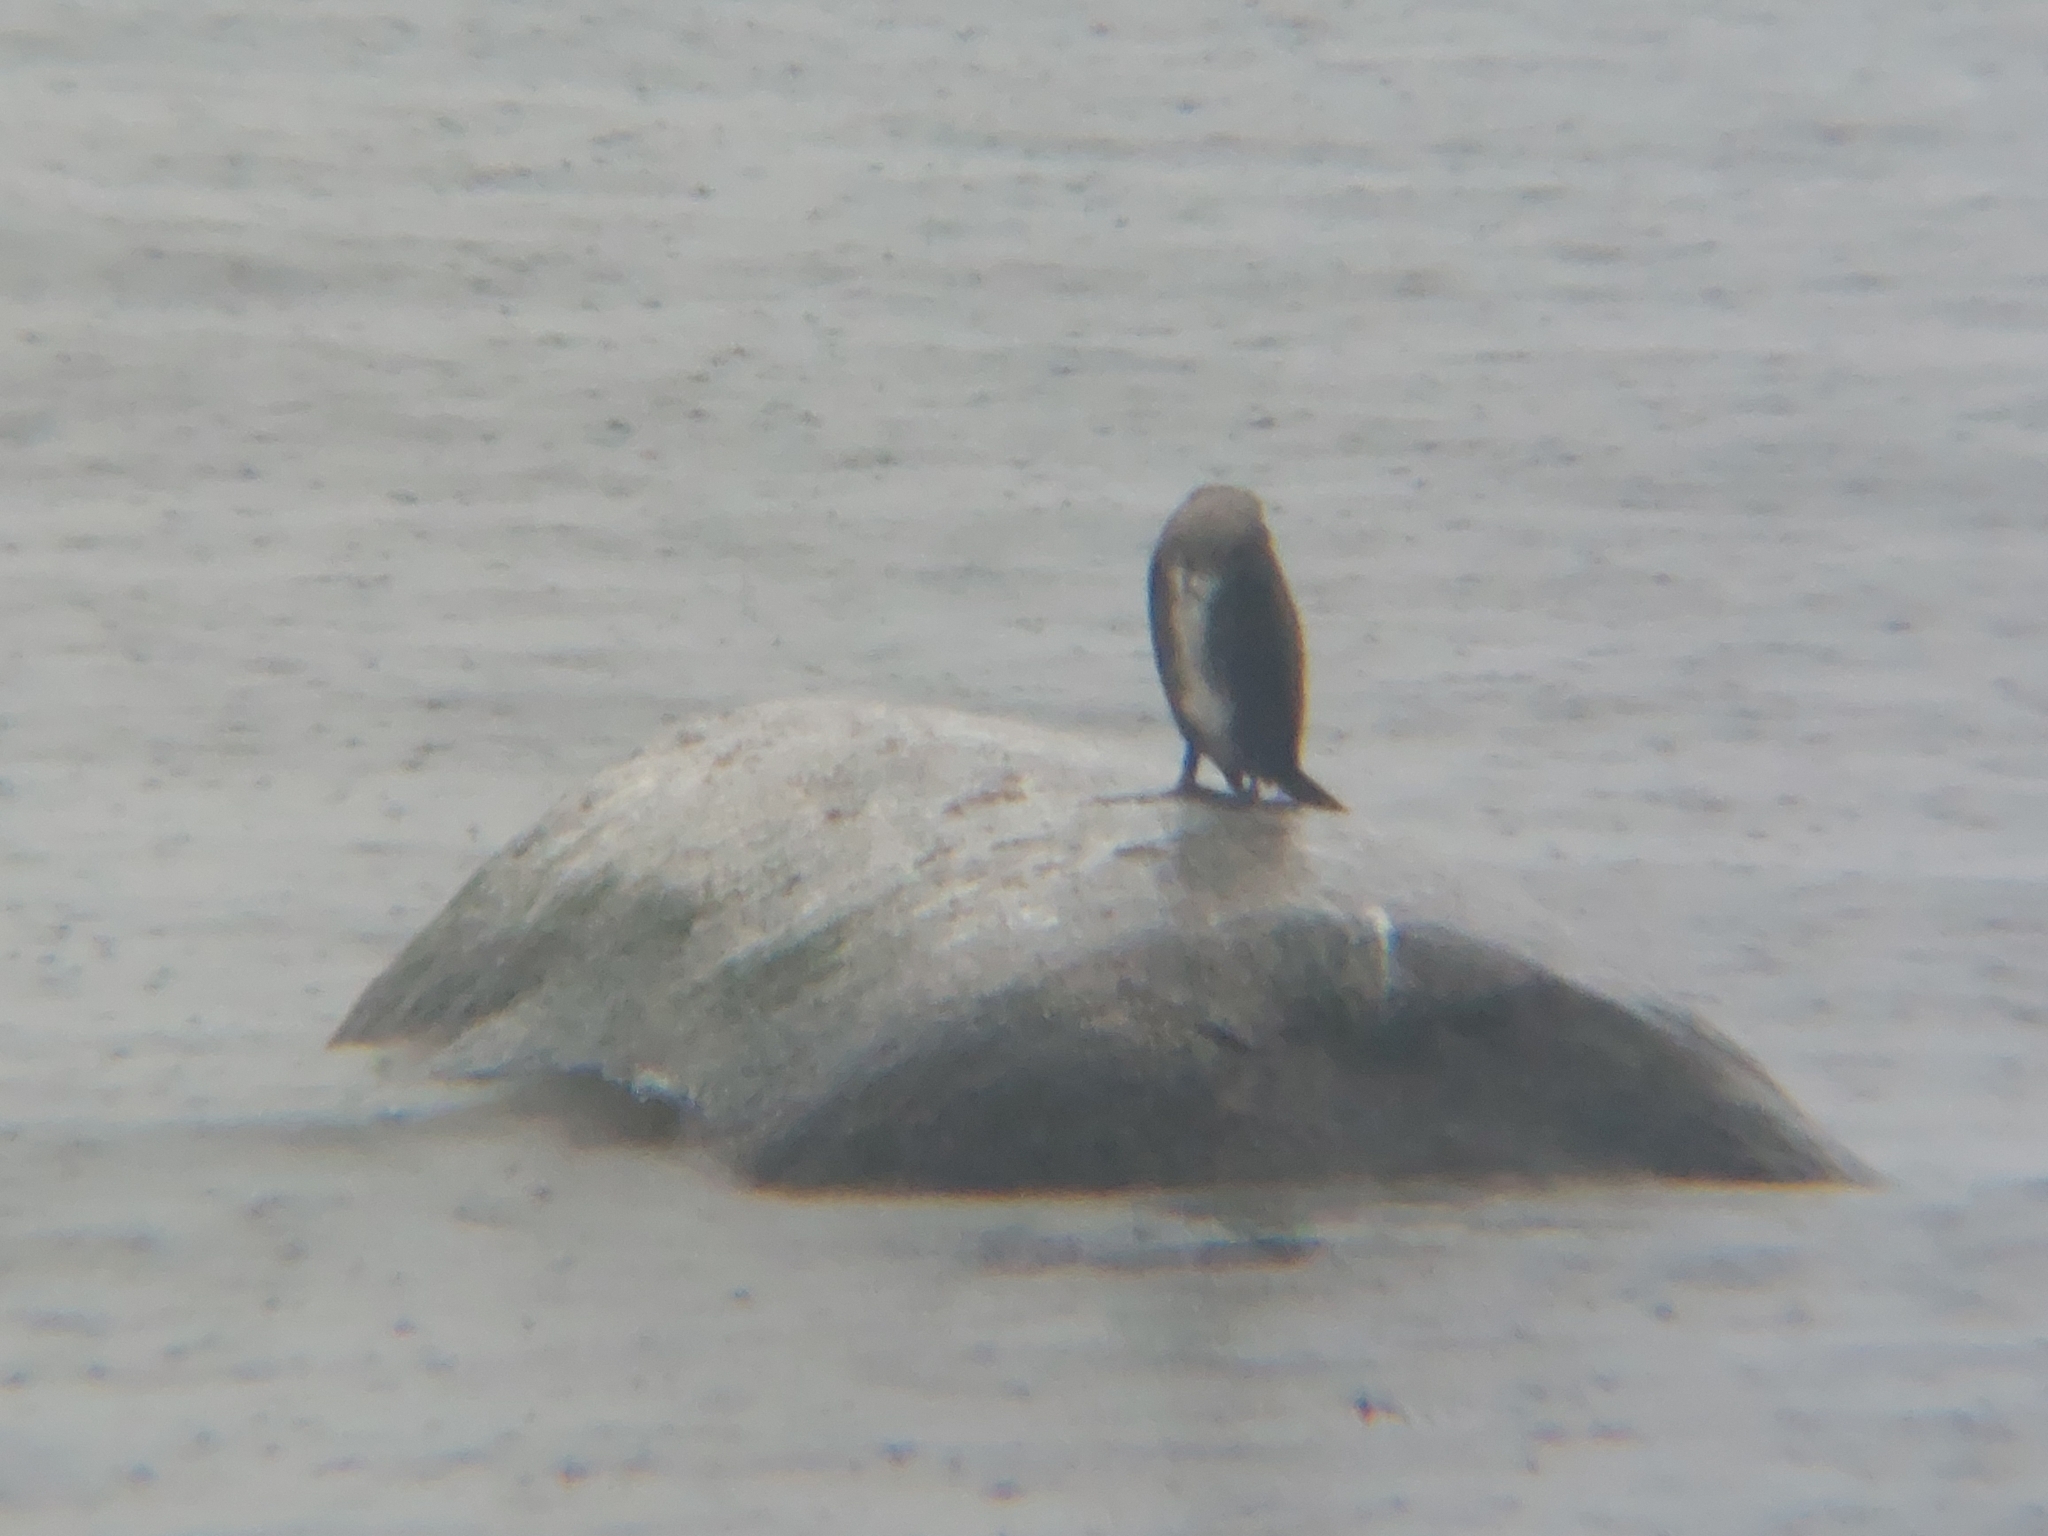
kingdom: Animalia
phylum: Chordata
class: Aves
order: Suliformes
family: Phalacrocoracidae
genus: Phalacrocorax
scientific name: Phalacrocorax carbo
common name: Great cormorant
